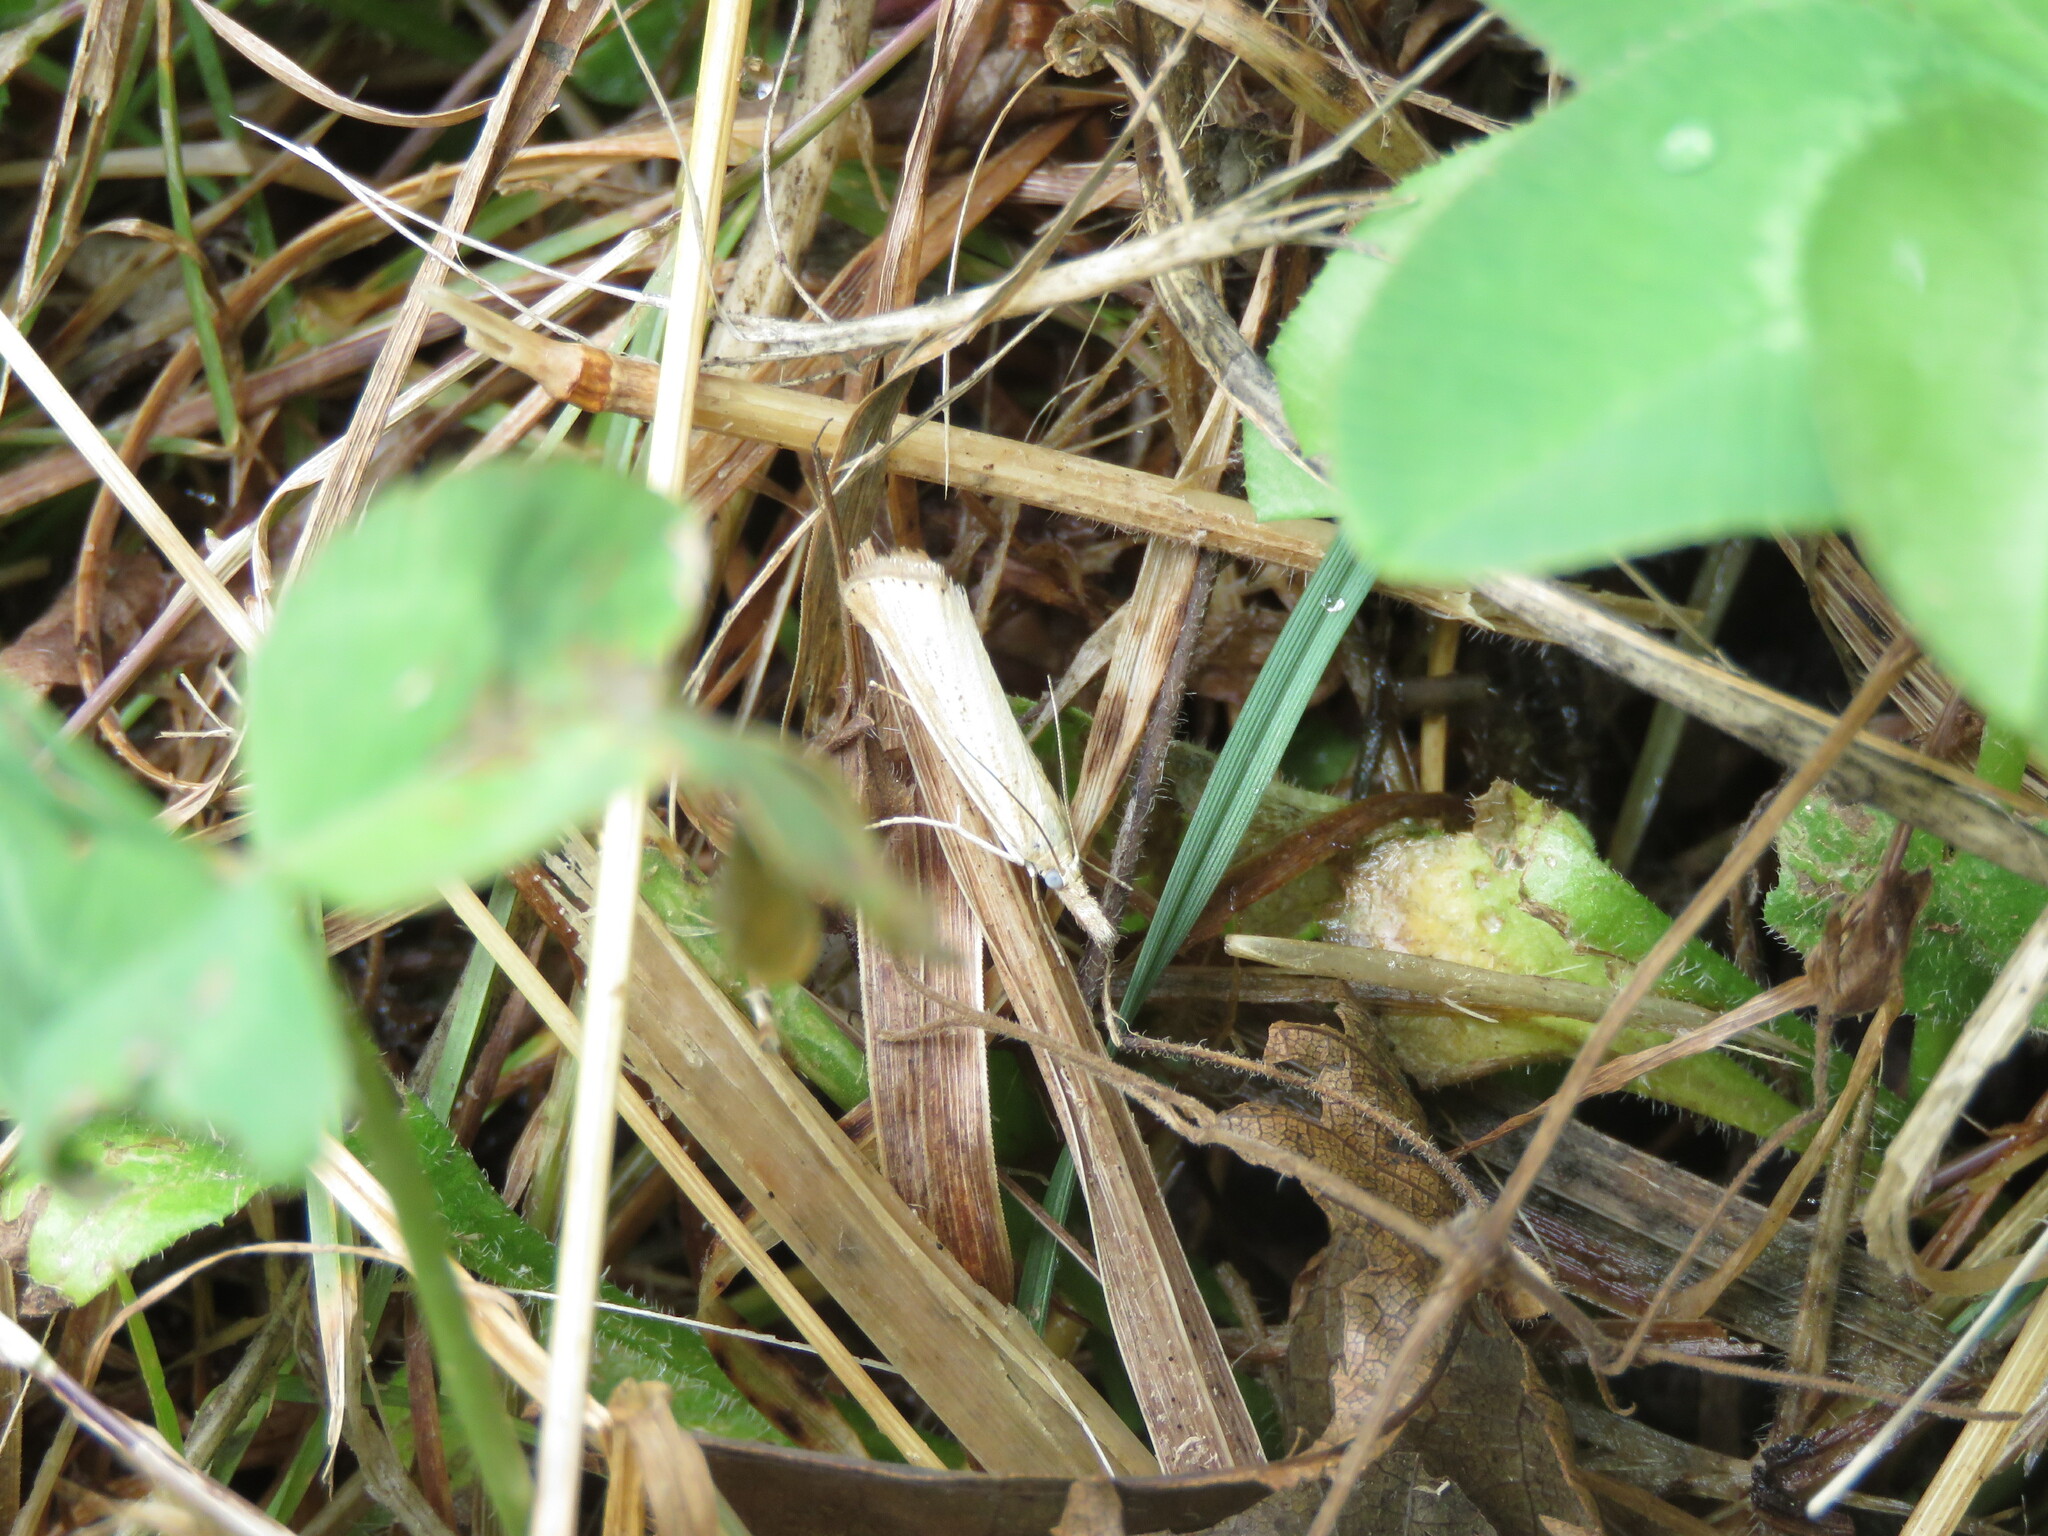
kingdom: Animalia
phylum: Arthropoda
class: Insecta
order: Lepidoptera
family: Crambidae
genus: Agriphila
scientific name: Agriphila straminella
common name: Straw grass-veneer
